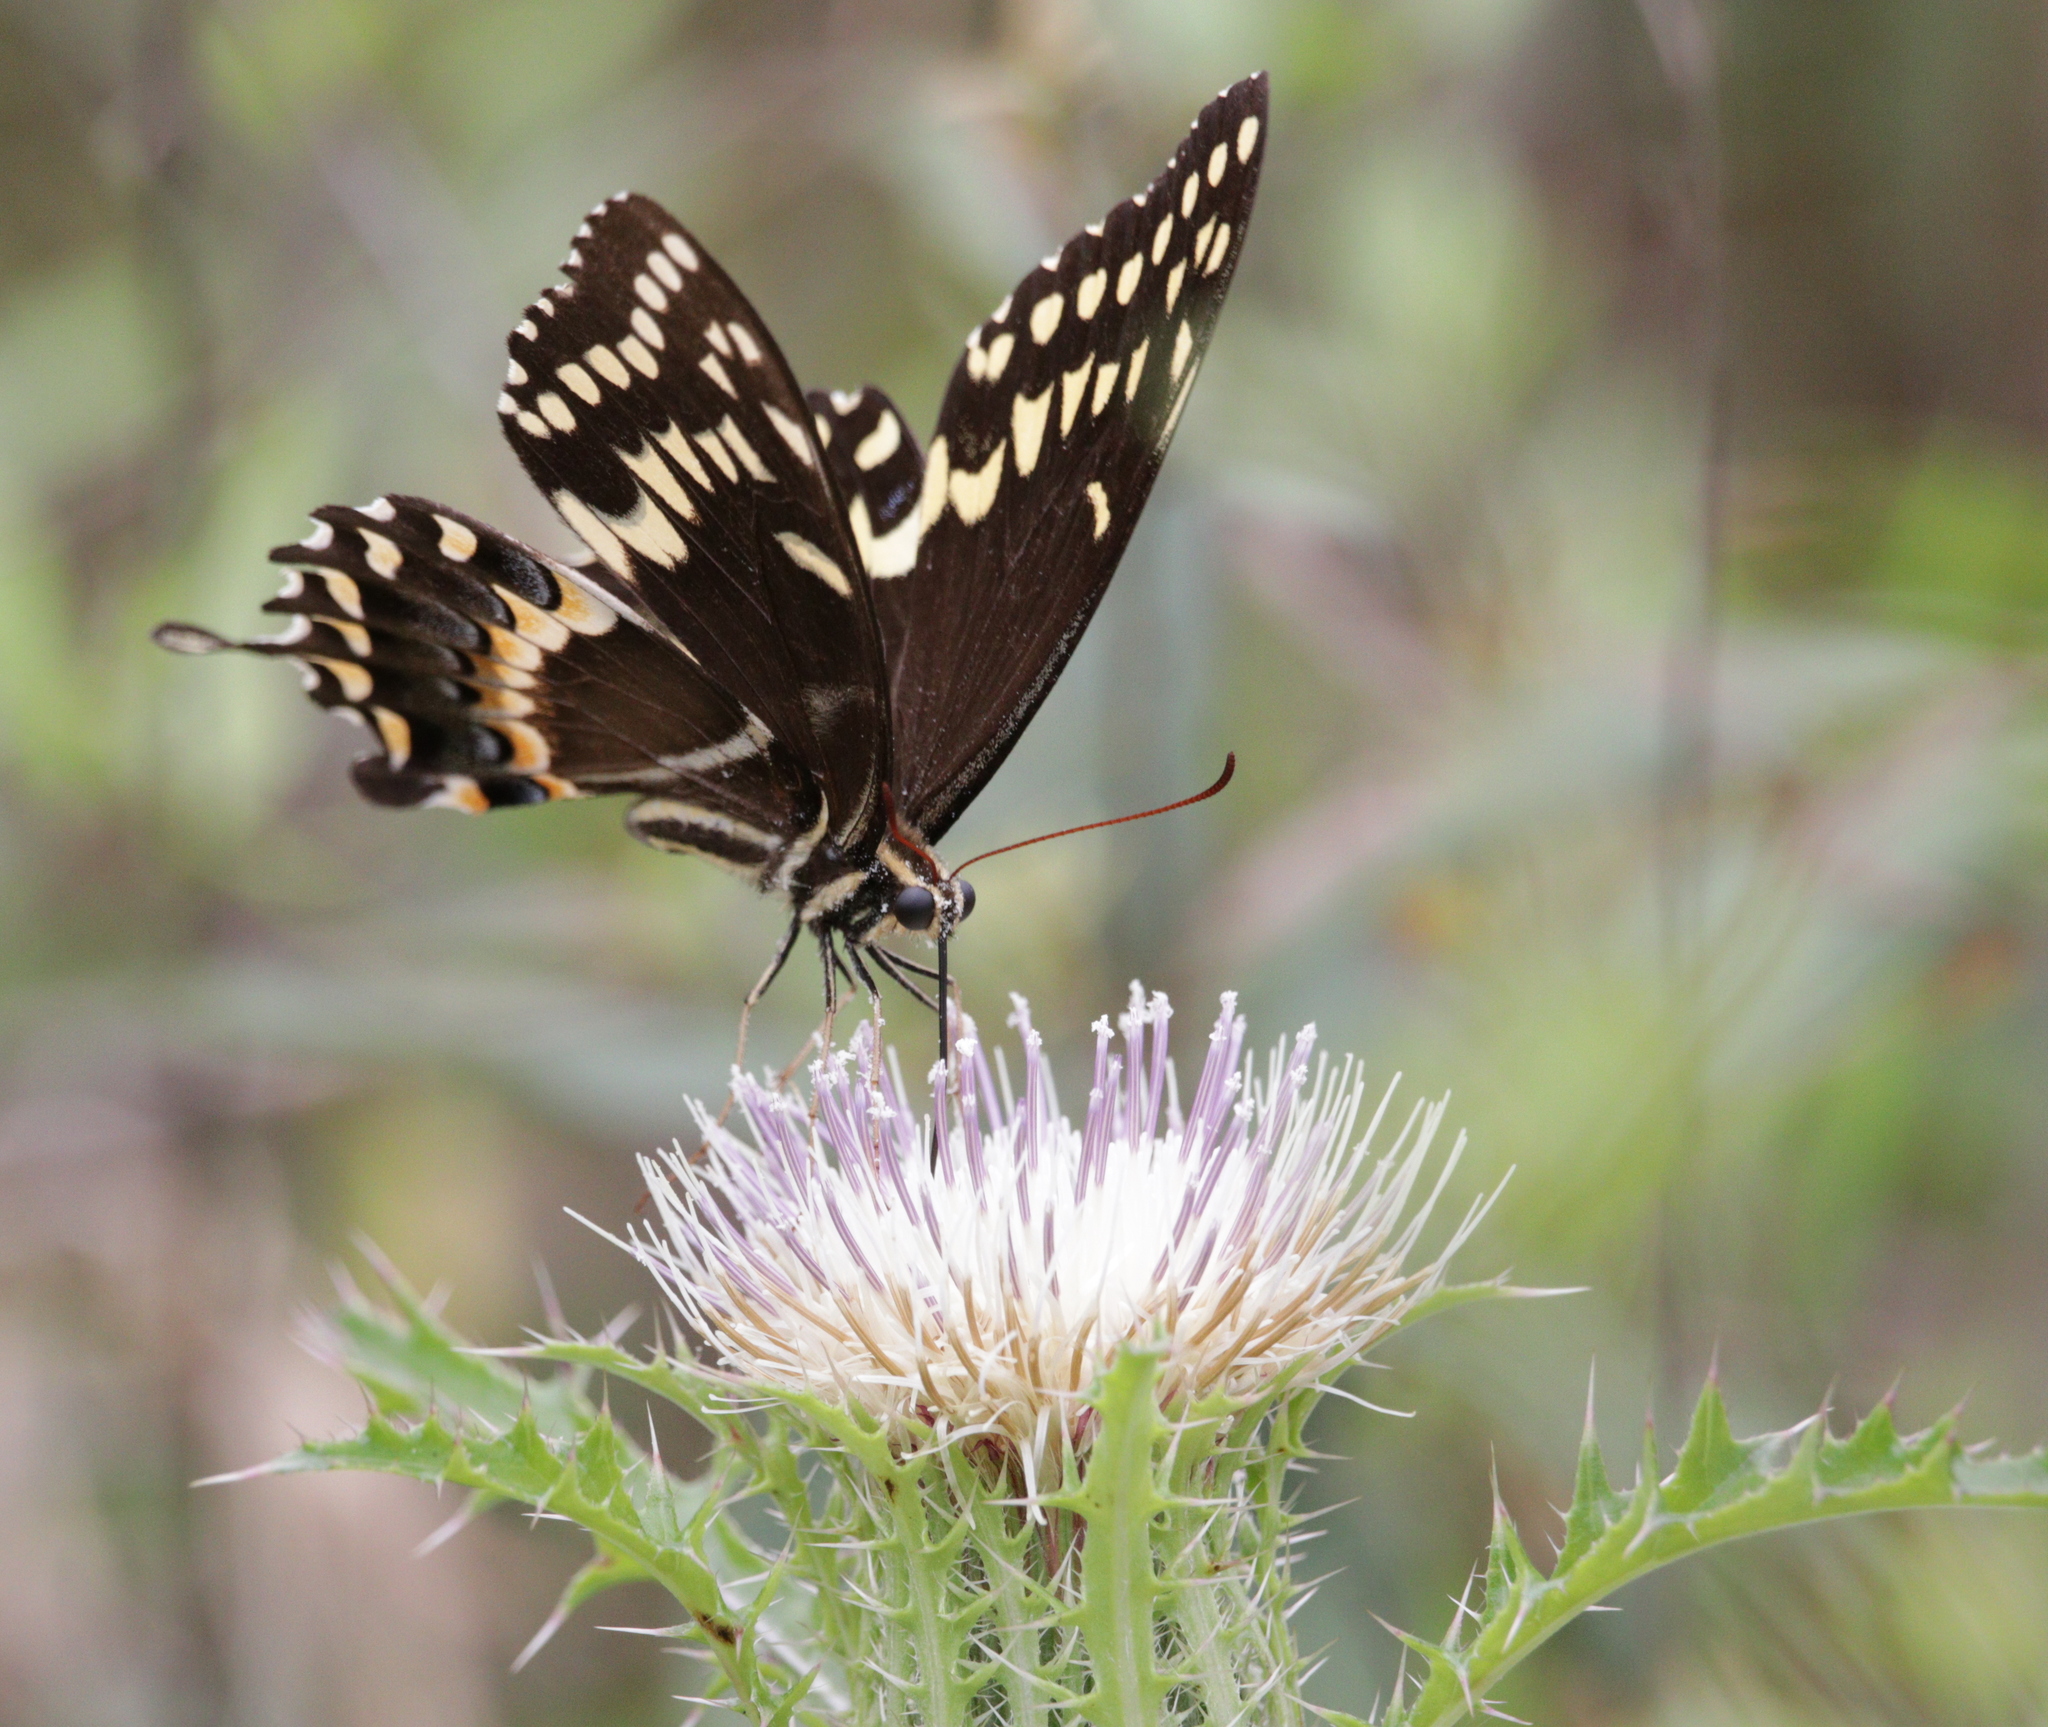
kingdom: Animalia
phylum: Arthropoda
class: Insecta
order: Lepidoptera
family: Papilionidae
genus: Papilio
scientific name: Papilio palamedes
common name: Palamedes swallowtail
